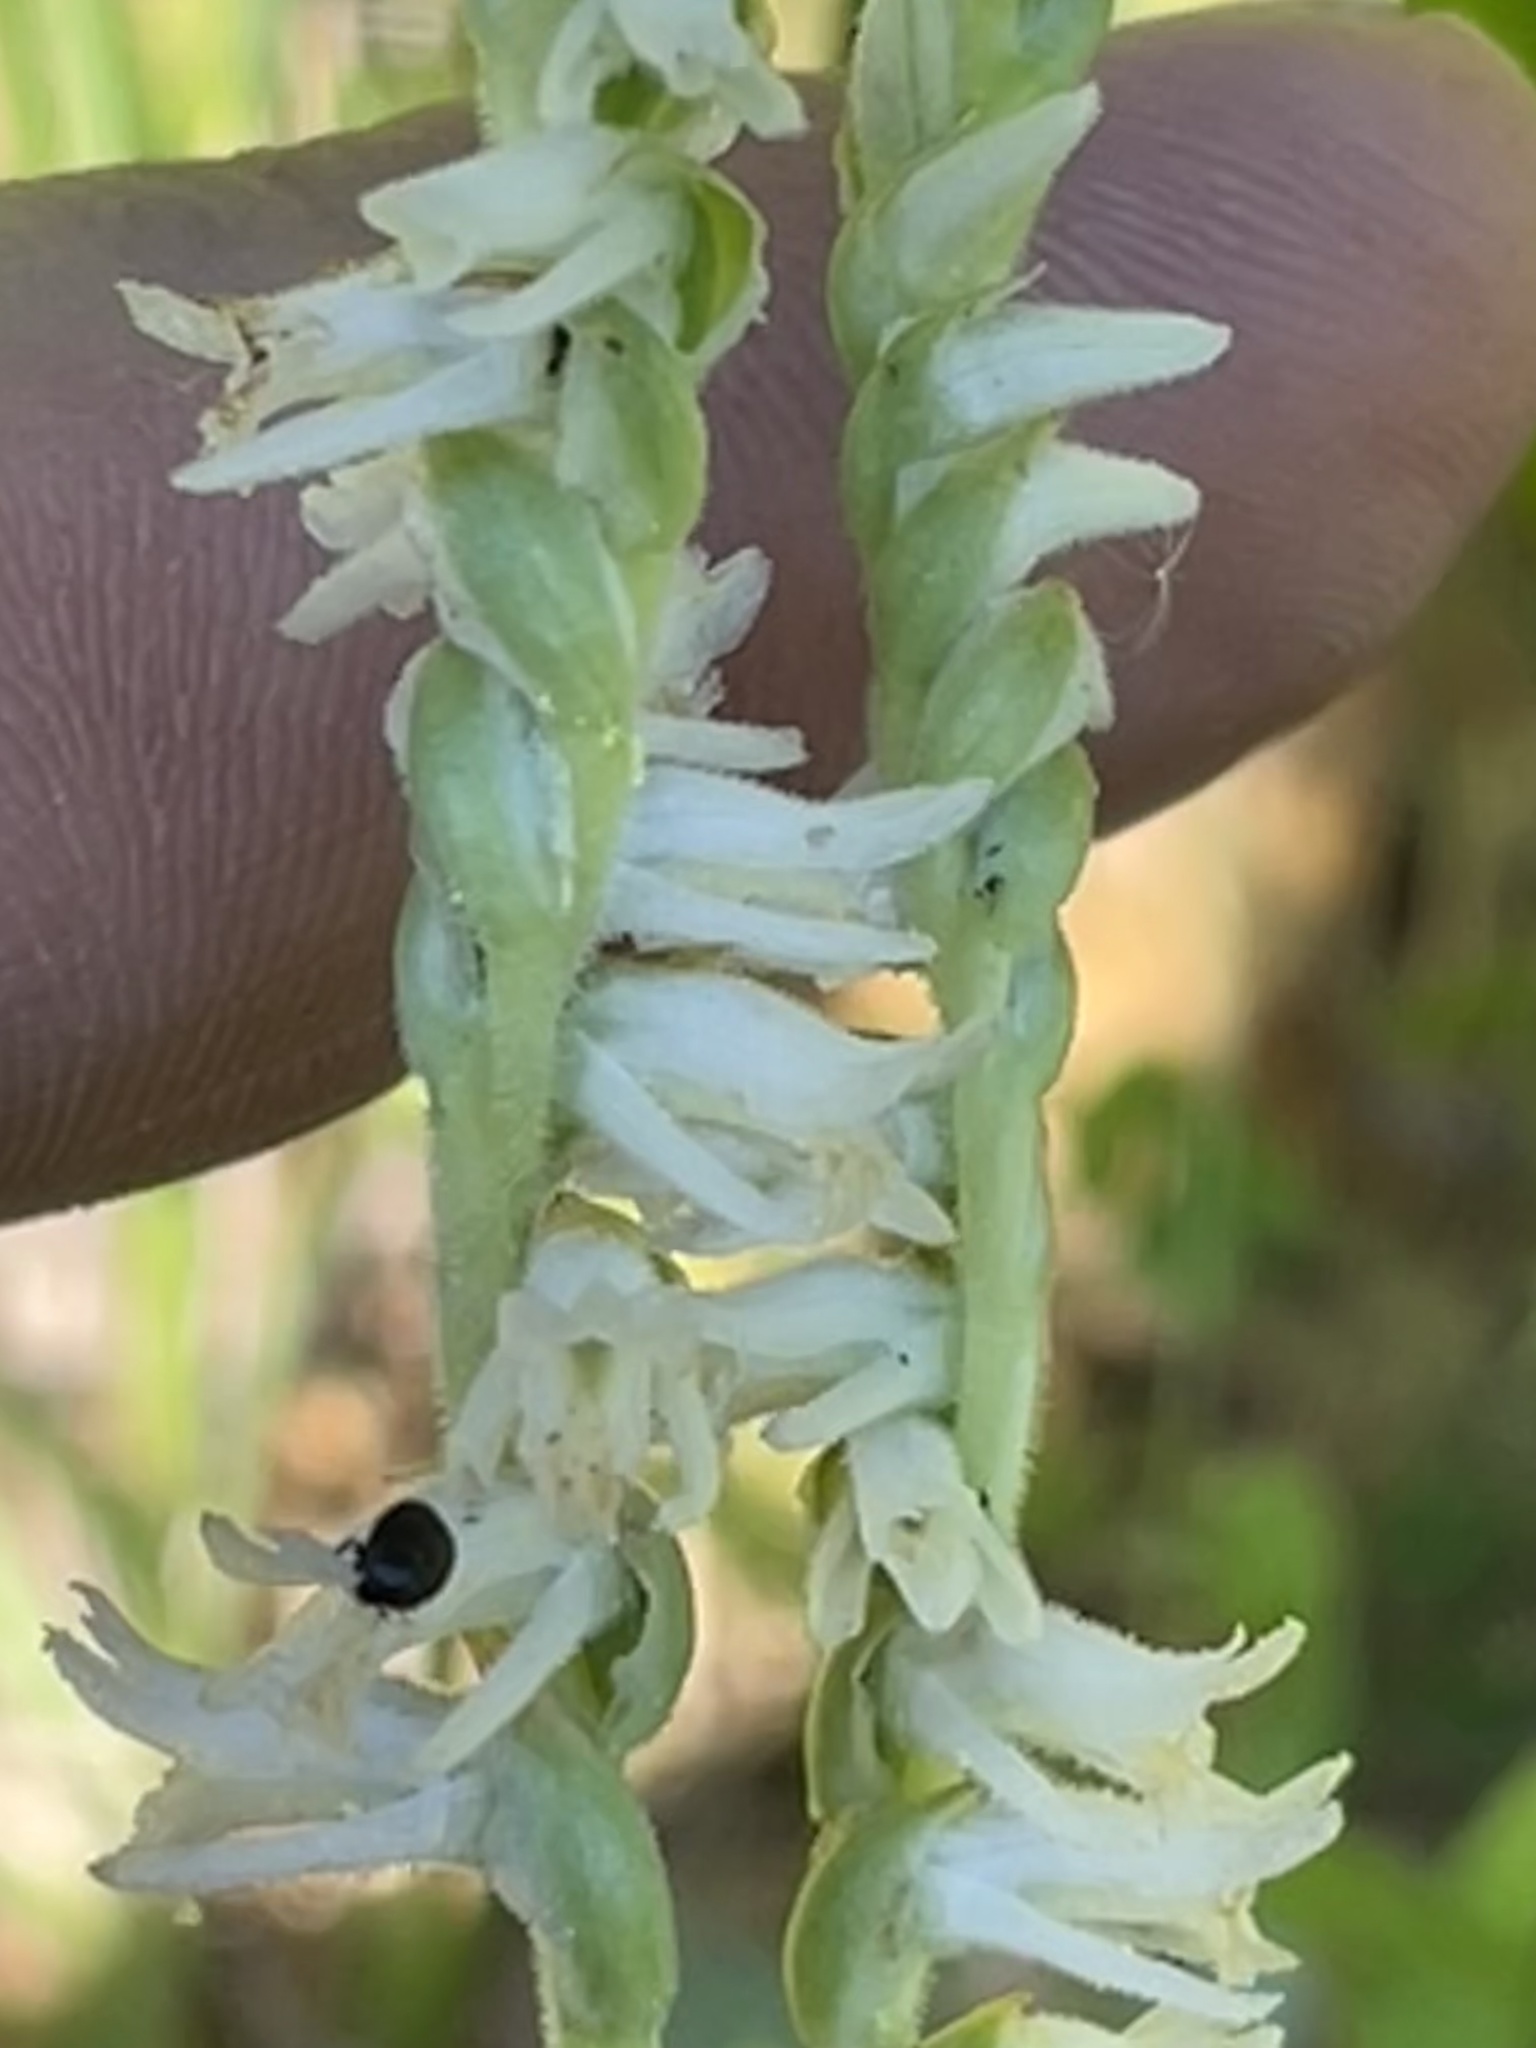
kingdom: Plantae
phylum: Tracheophyta
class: Liliopsida
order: Asparagales
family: Orchidaceae
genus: Spiranthes
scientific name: Spiranthes vernalis
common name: Spring ladies'-tresses
